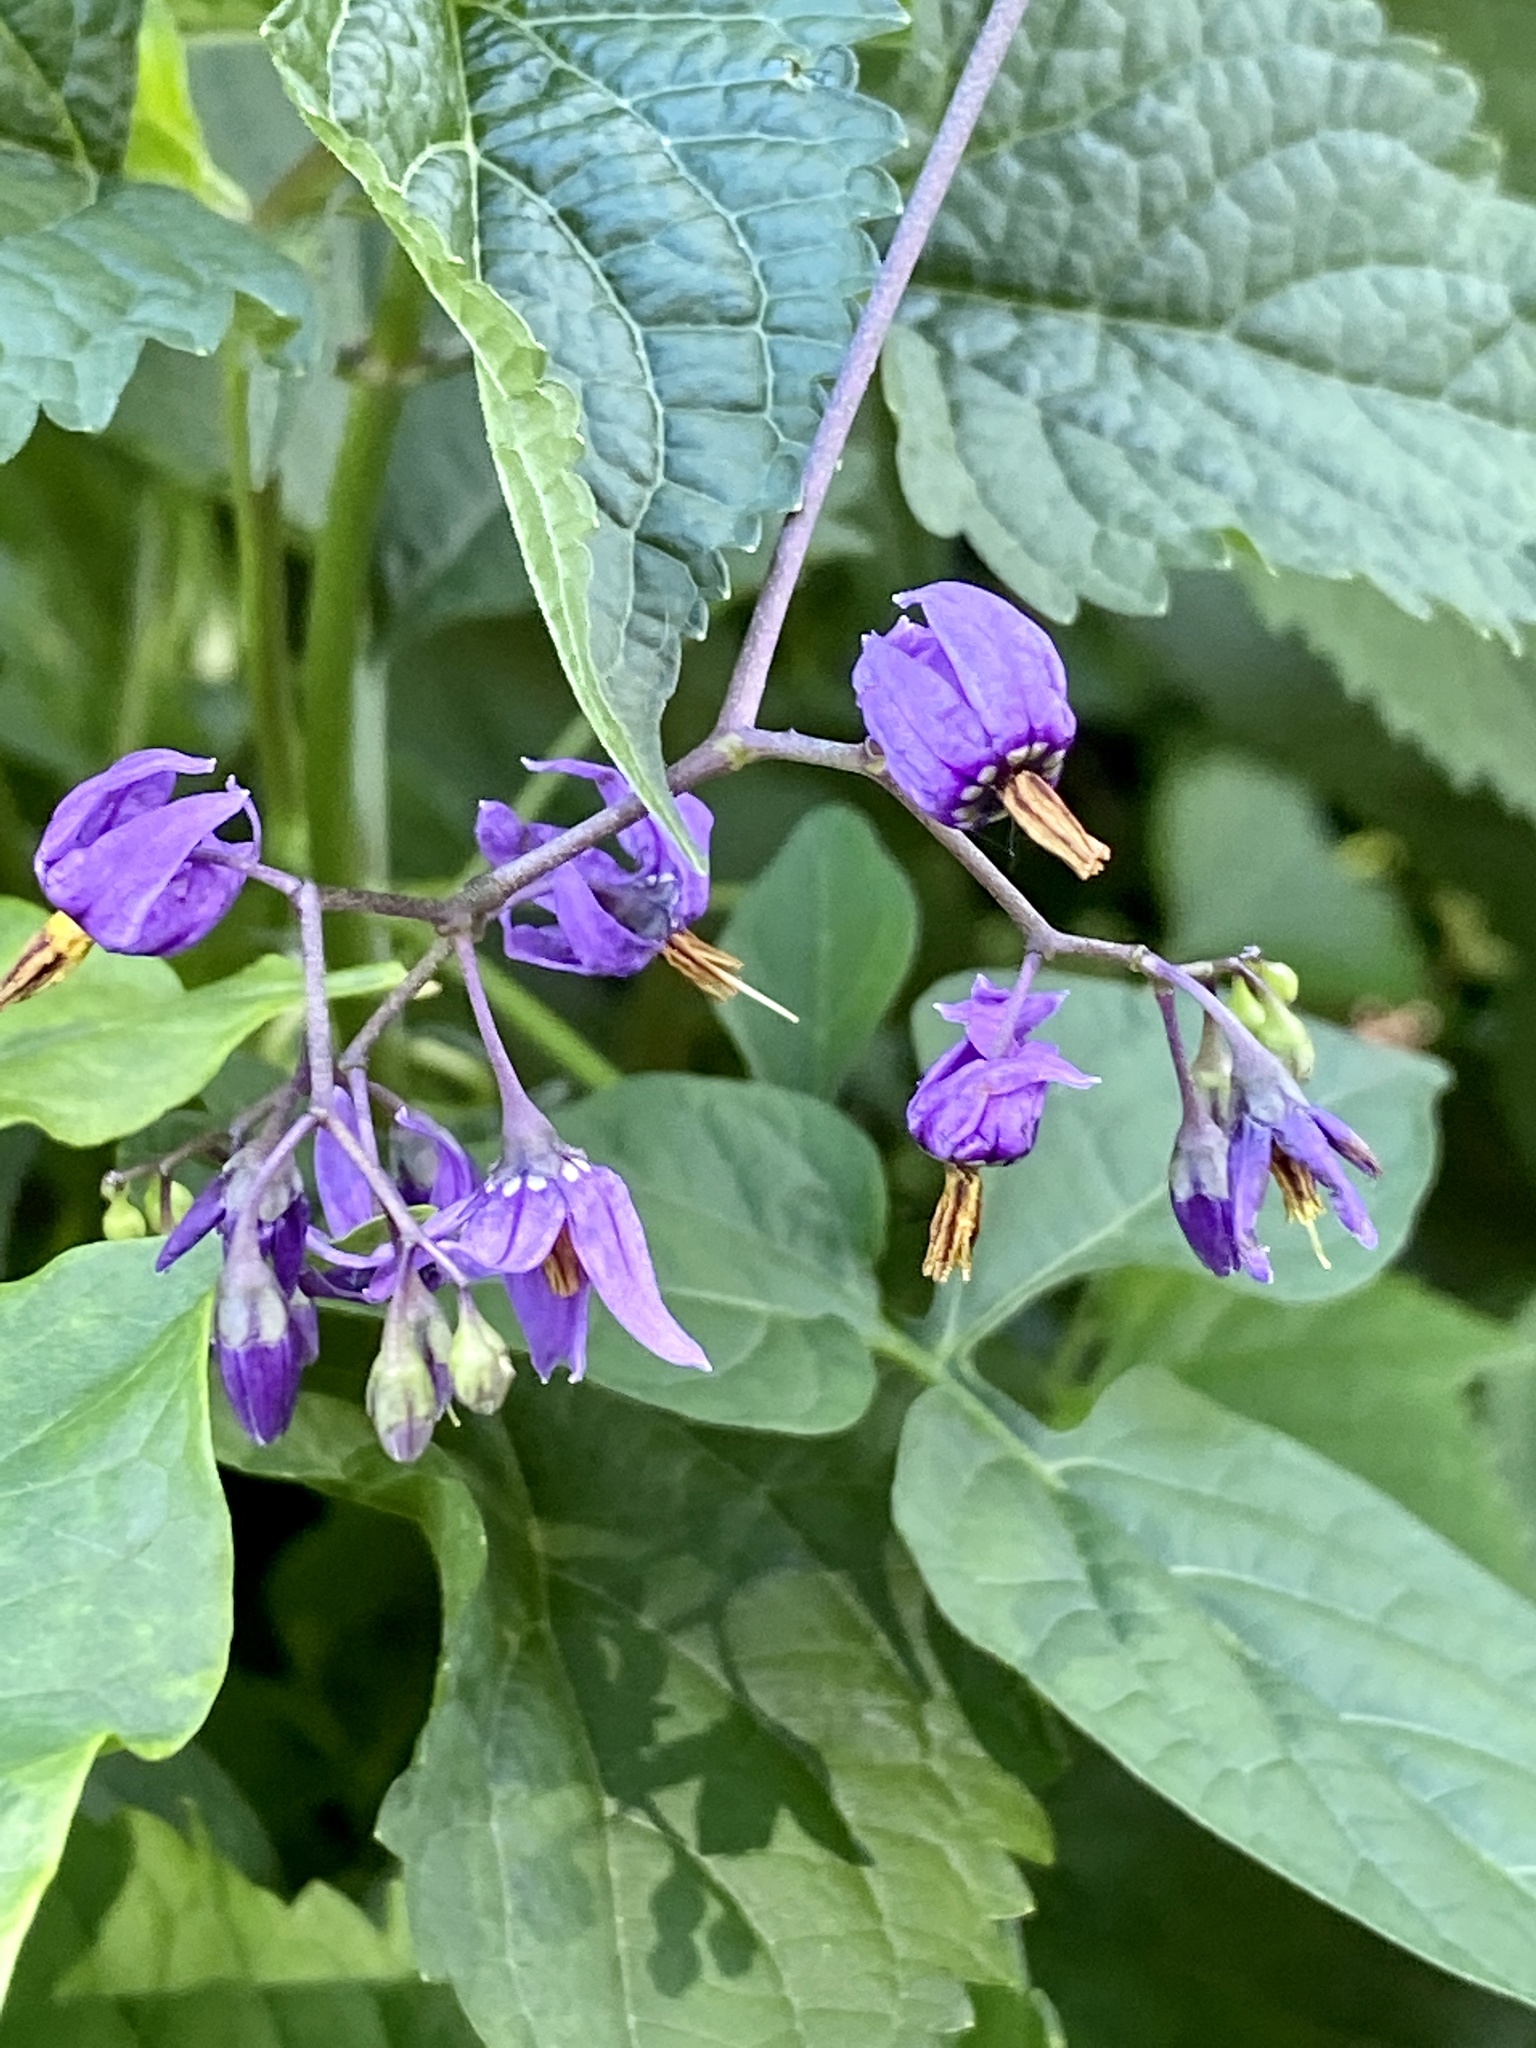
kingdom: Plantae
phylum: Tracheophyta
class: Magnoliopsida
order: Solanales
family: Solanaceae
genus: Solanum
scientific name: Solanum dulcamara
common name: Climbing nightshade
